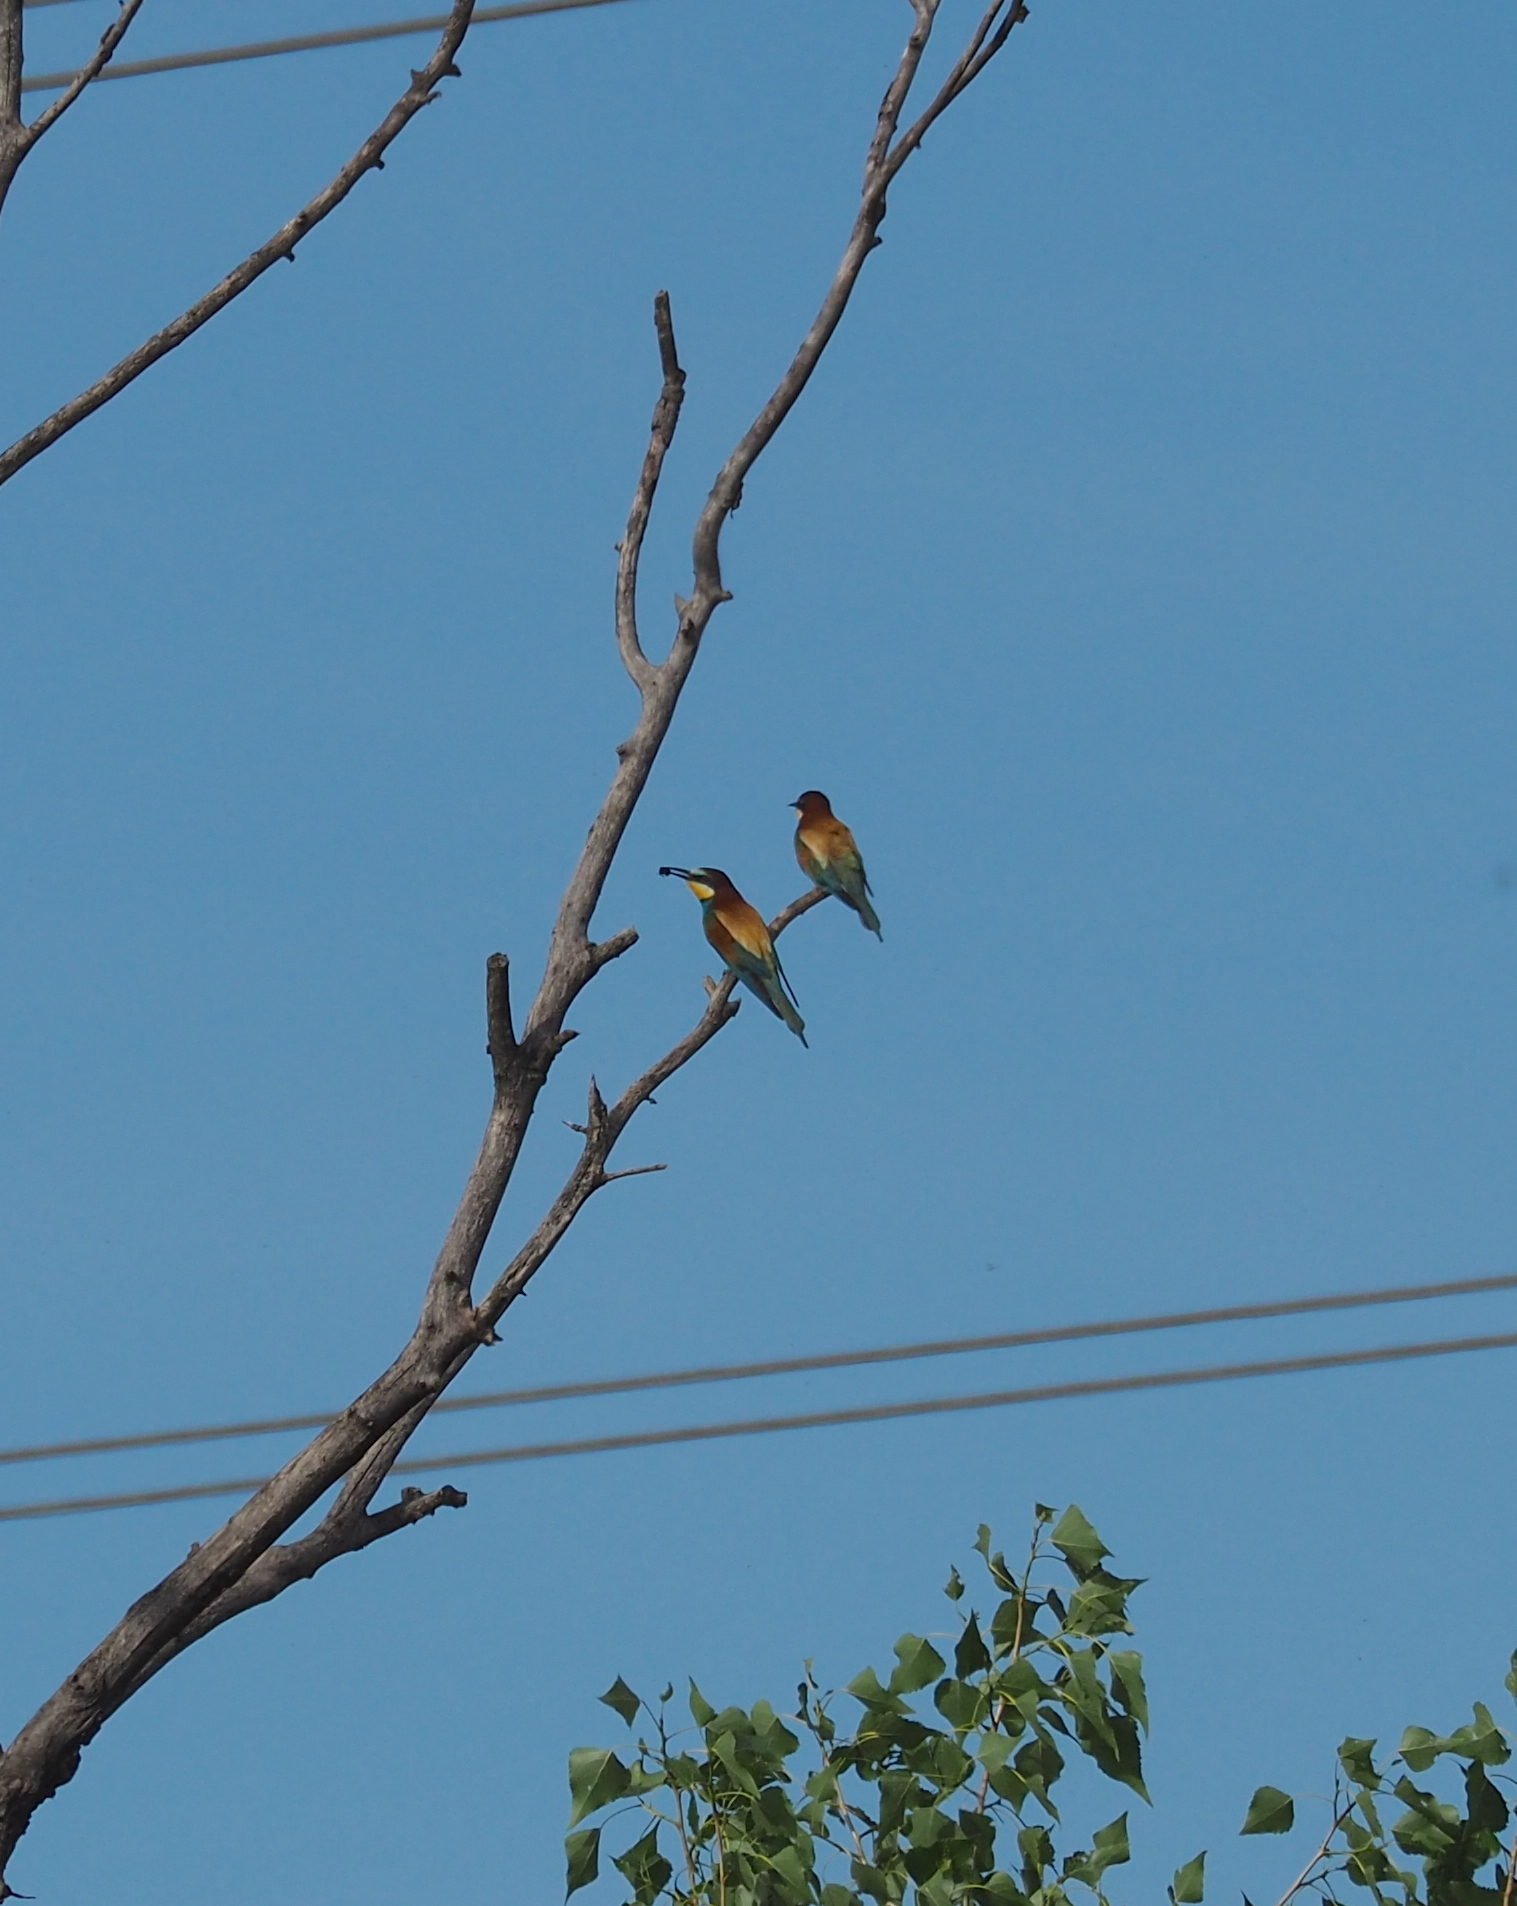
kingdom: Animalia
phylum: Chordata
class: Aves
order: Coraciiformes
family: Meropidae
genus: Merops
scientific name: Merops apiaster
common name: European bee-eater
